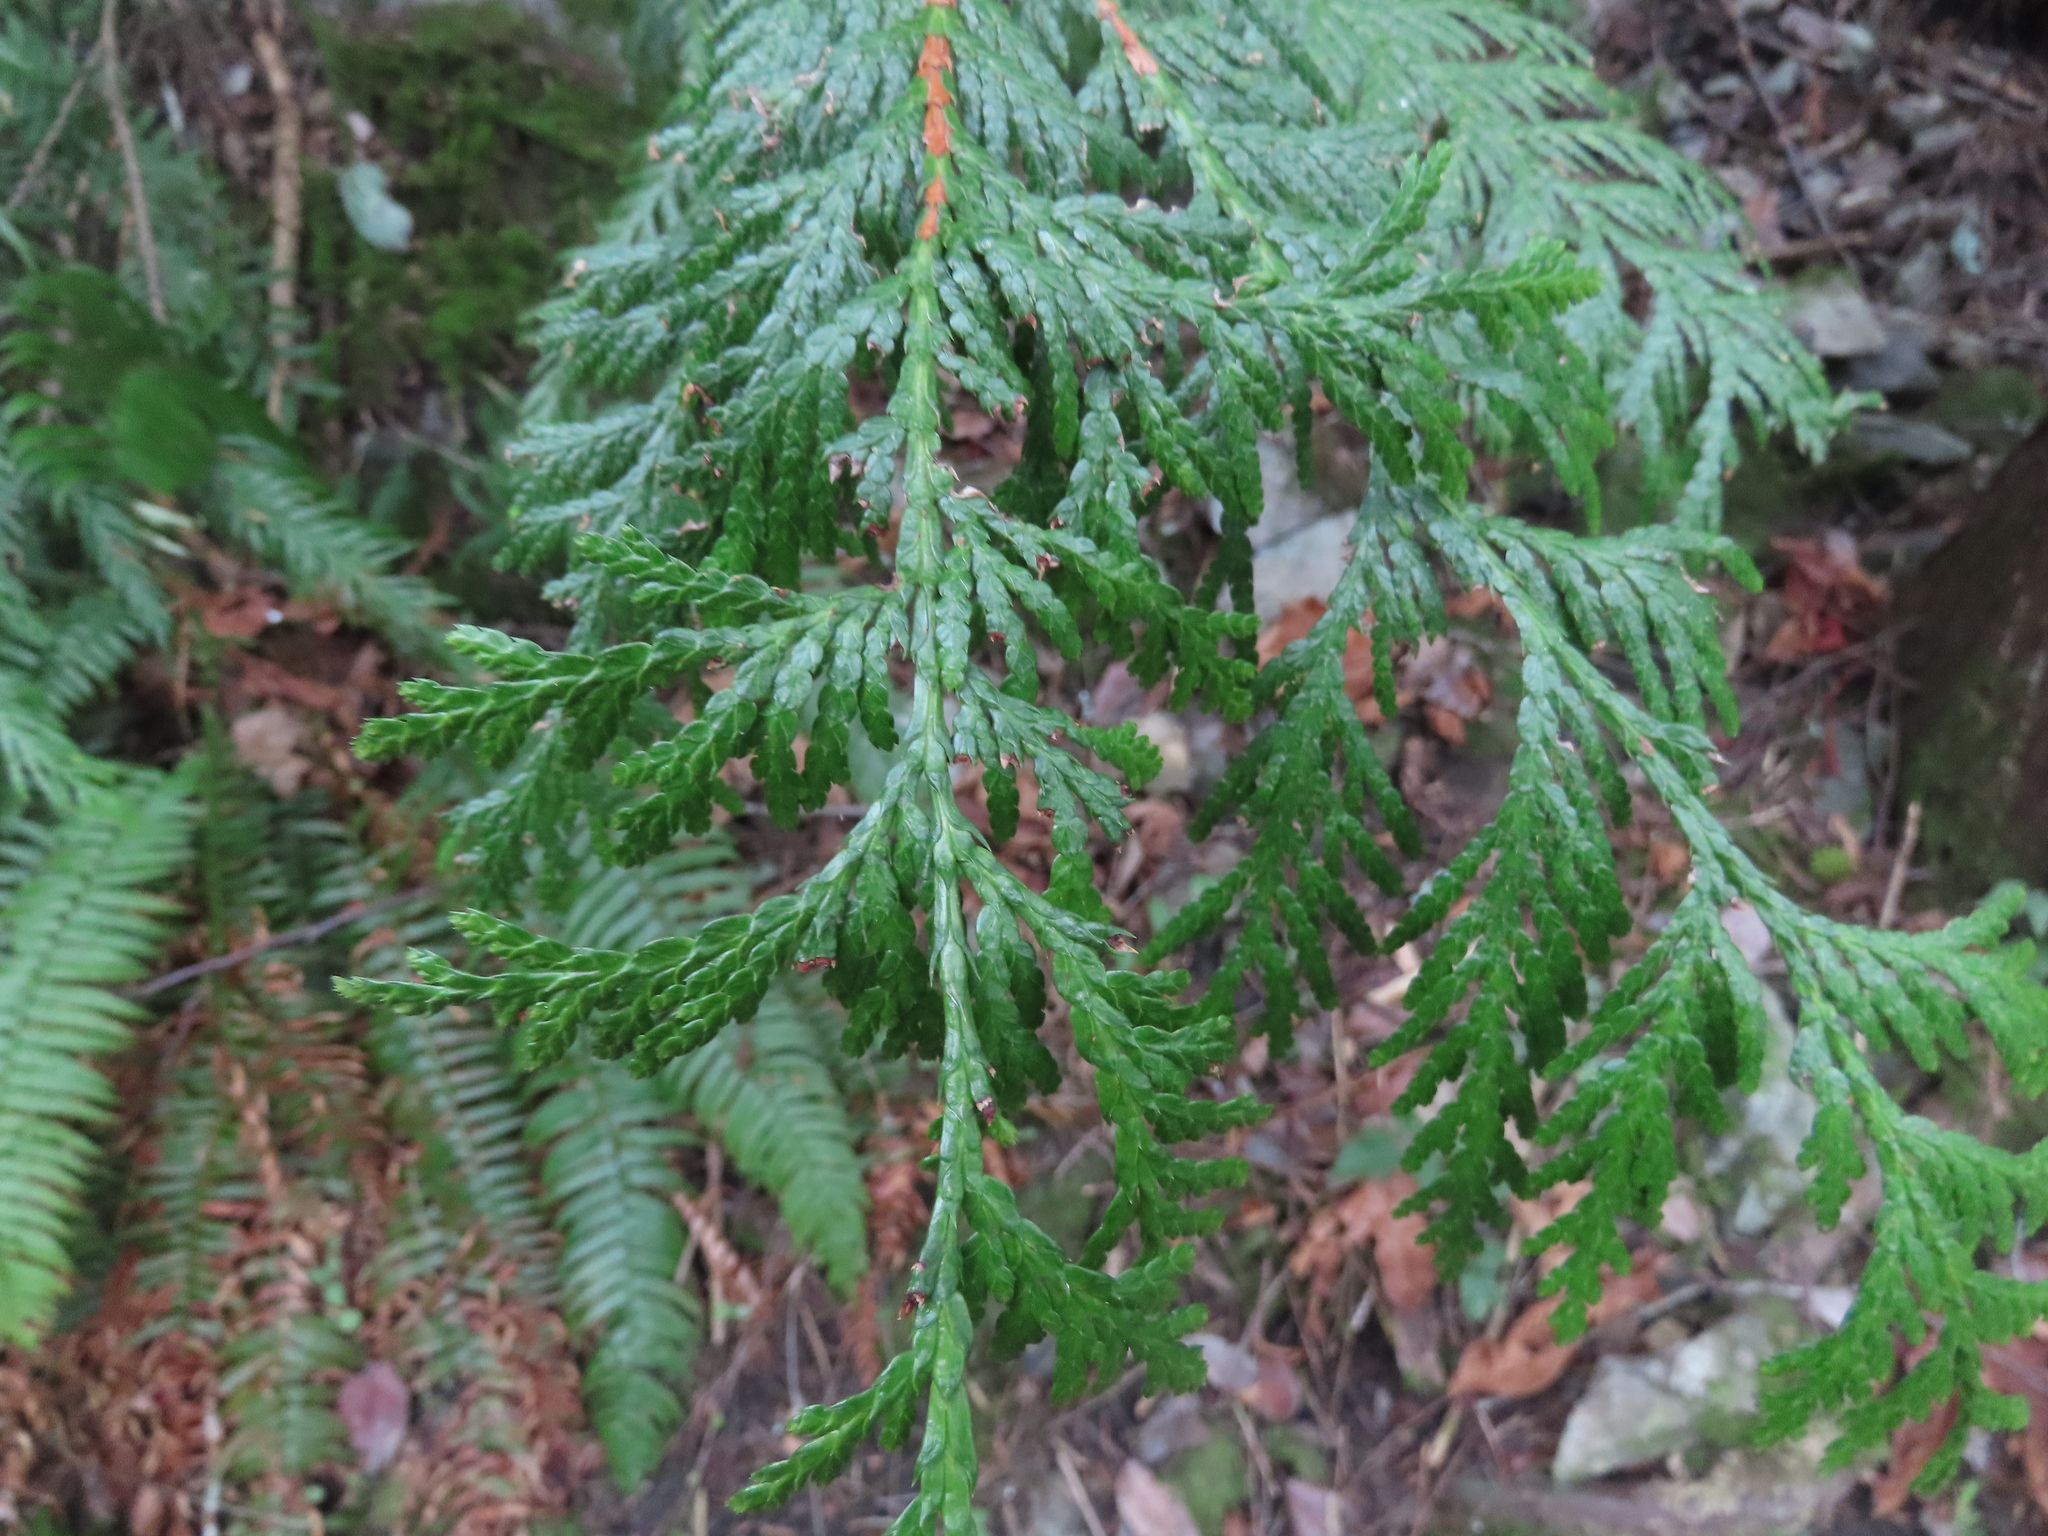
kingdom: Plantae
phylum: Tracheophyta
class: Pinopsida
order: Pinales
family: Cupressaceae
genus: Thuja
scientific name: Thuja plicata
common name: Western red-cedar
